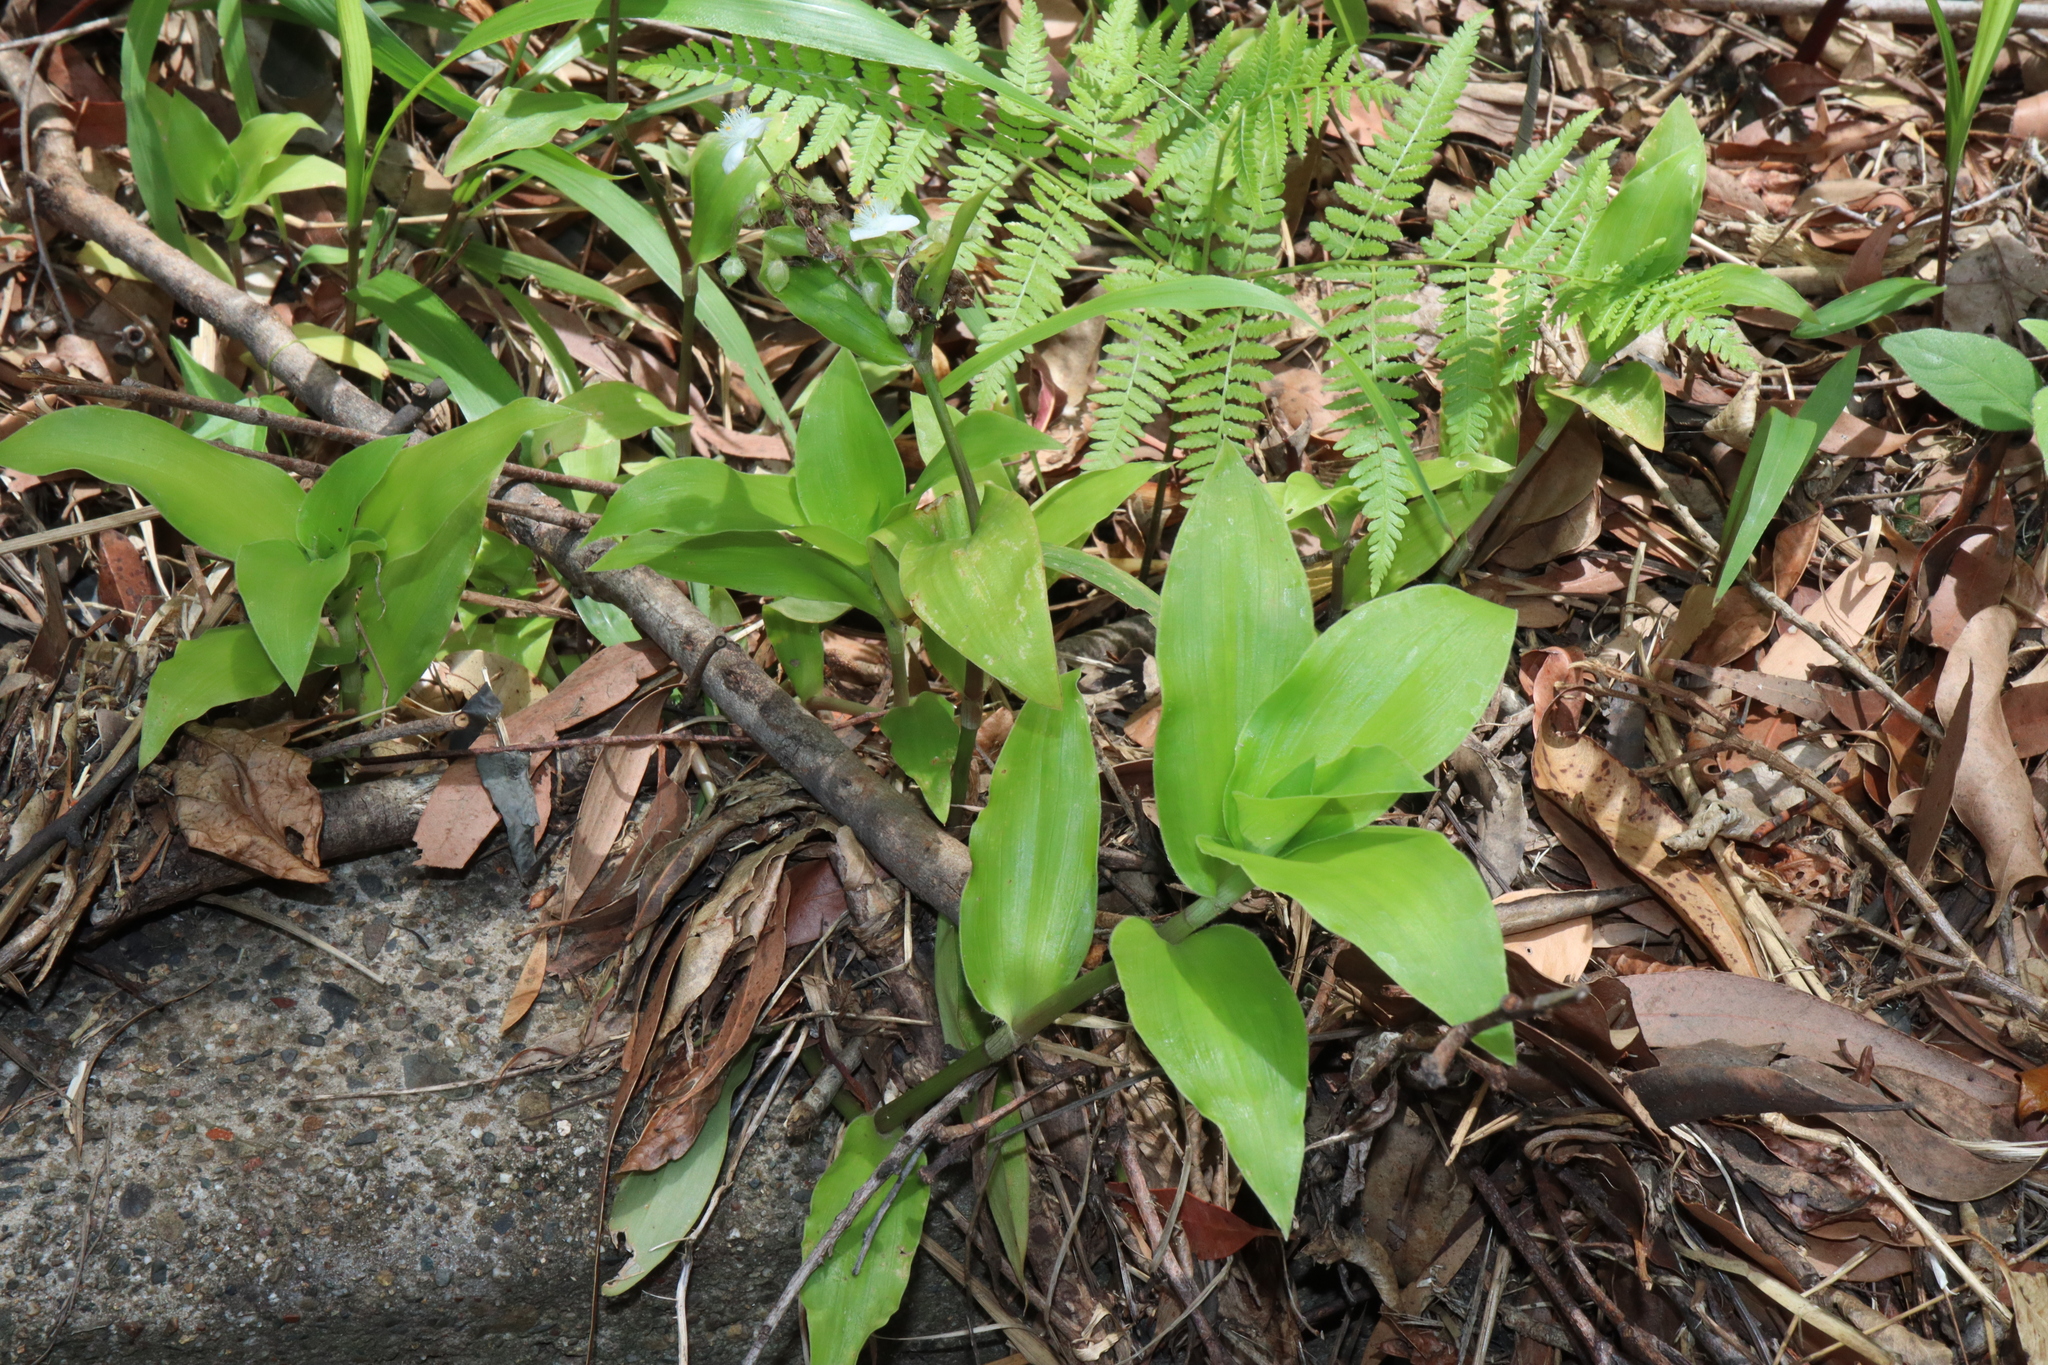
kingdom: Plantae
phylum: Tracheophyta
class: Liliopsida
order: Commelinales
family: Commelinaceae
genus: Tradescantia
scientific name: Tradescantia crassula
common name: Succulent spiderwort
